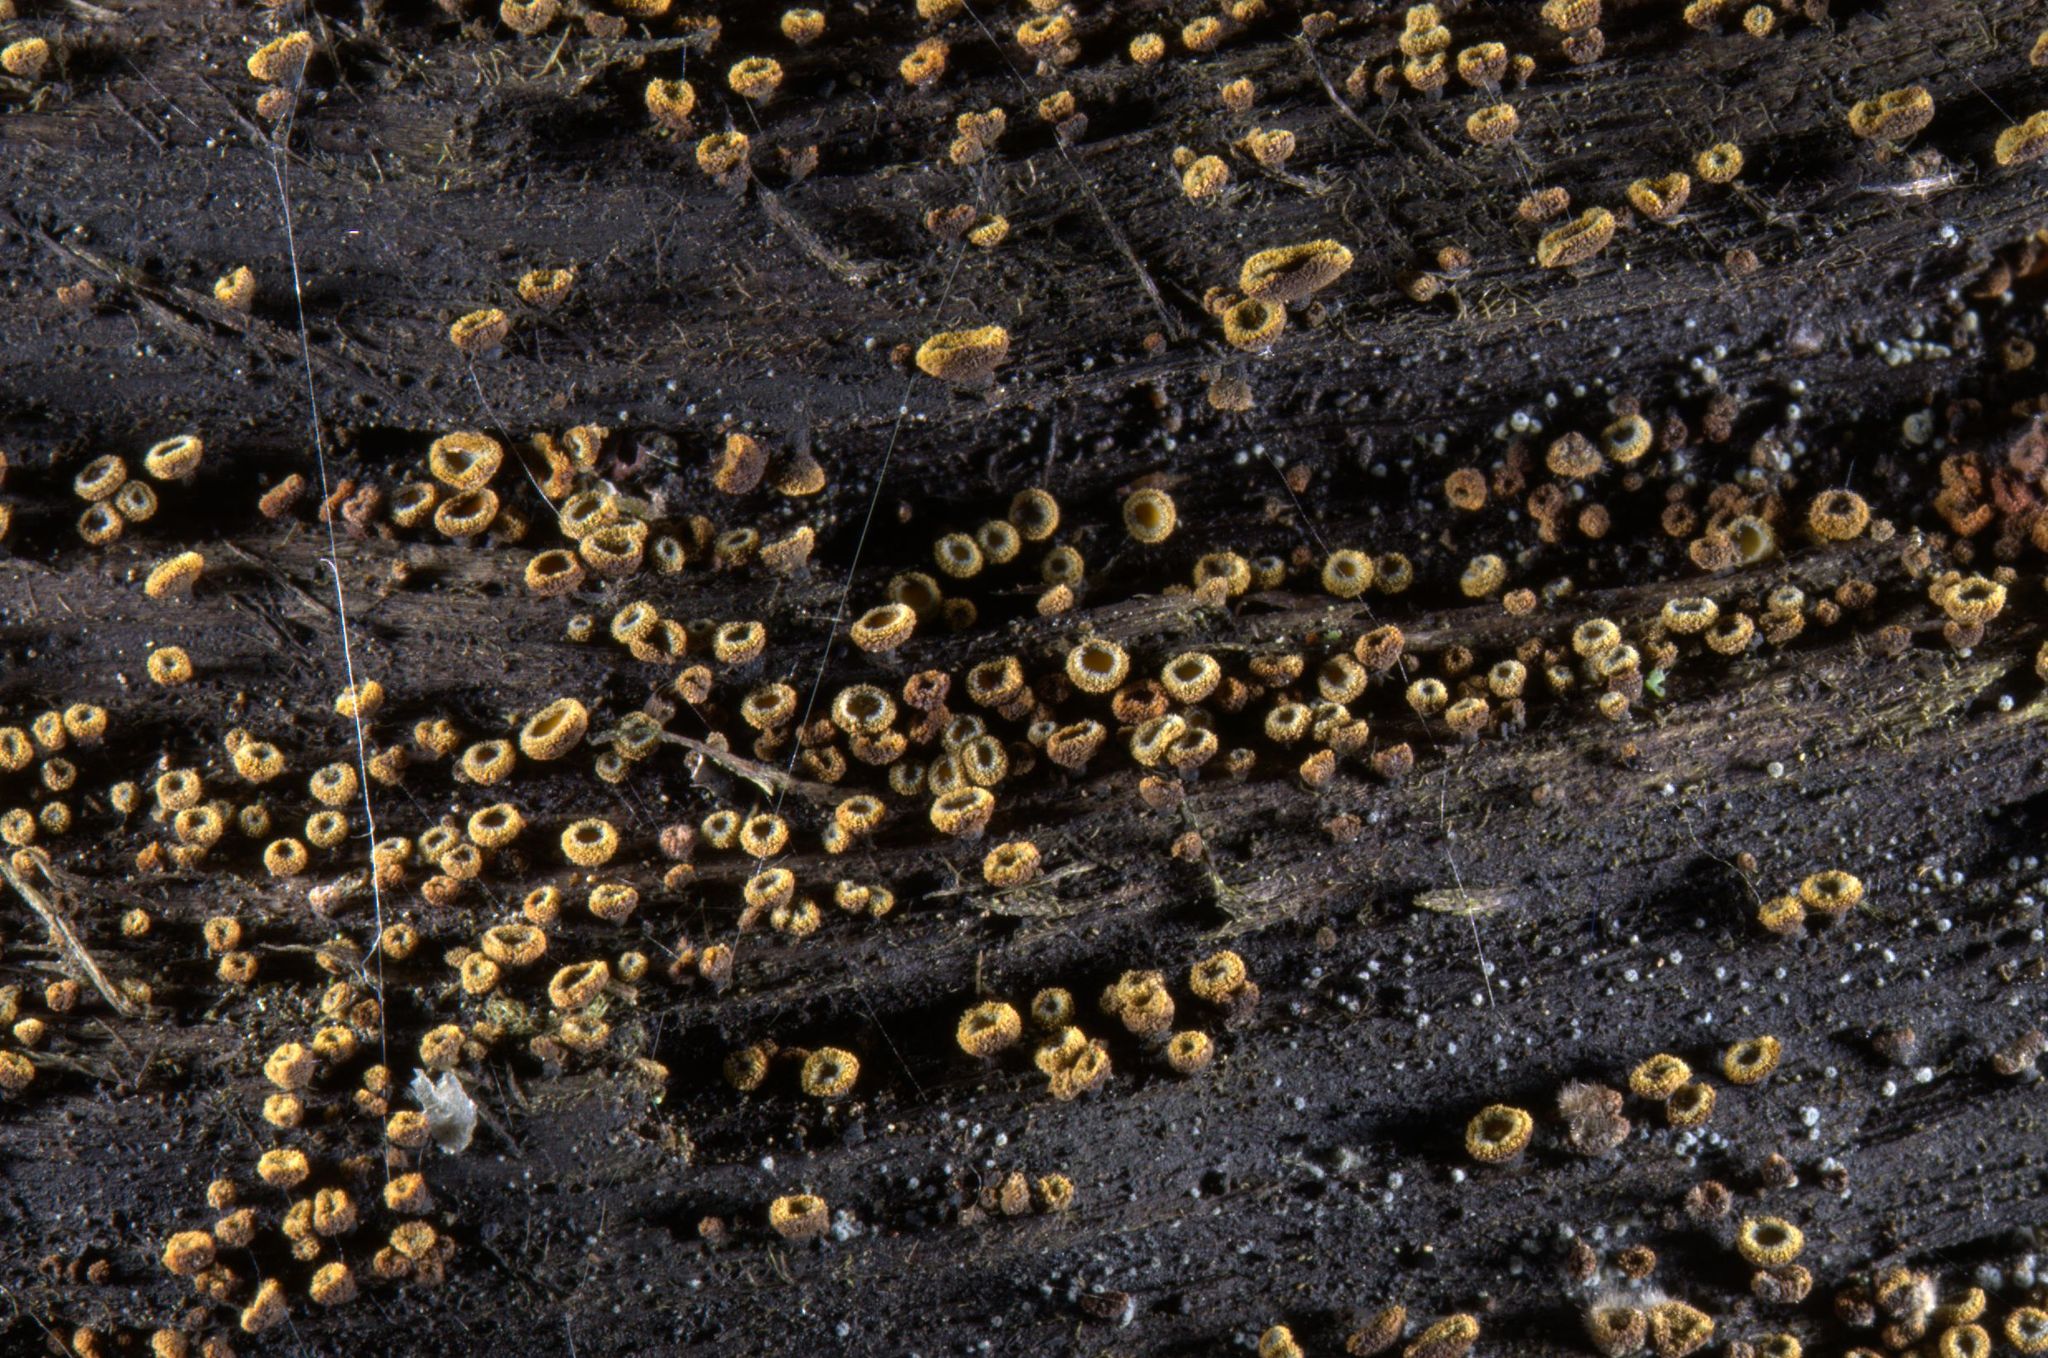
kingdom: Fungi
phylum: Ascomycota
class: Leotiomycetes
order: Helotiales
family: Lachnaceae
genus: Neodasyscypha
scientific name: Neodasyscypha cerina
